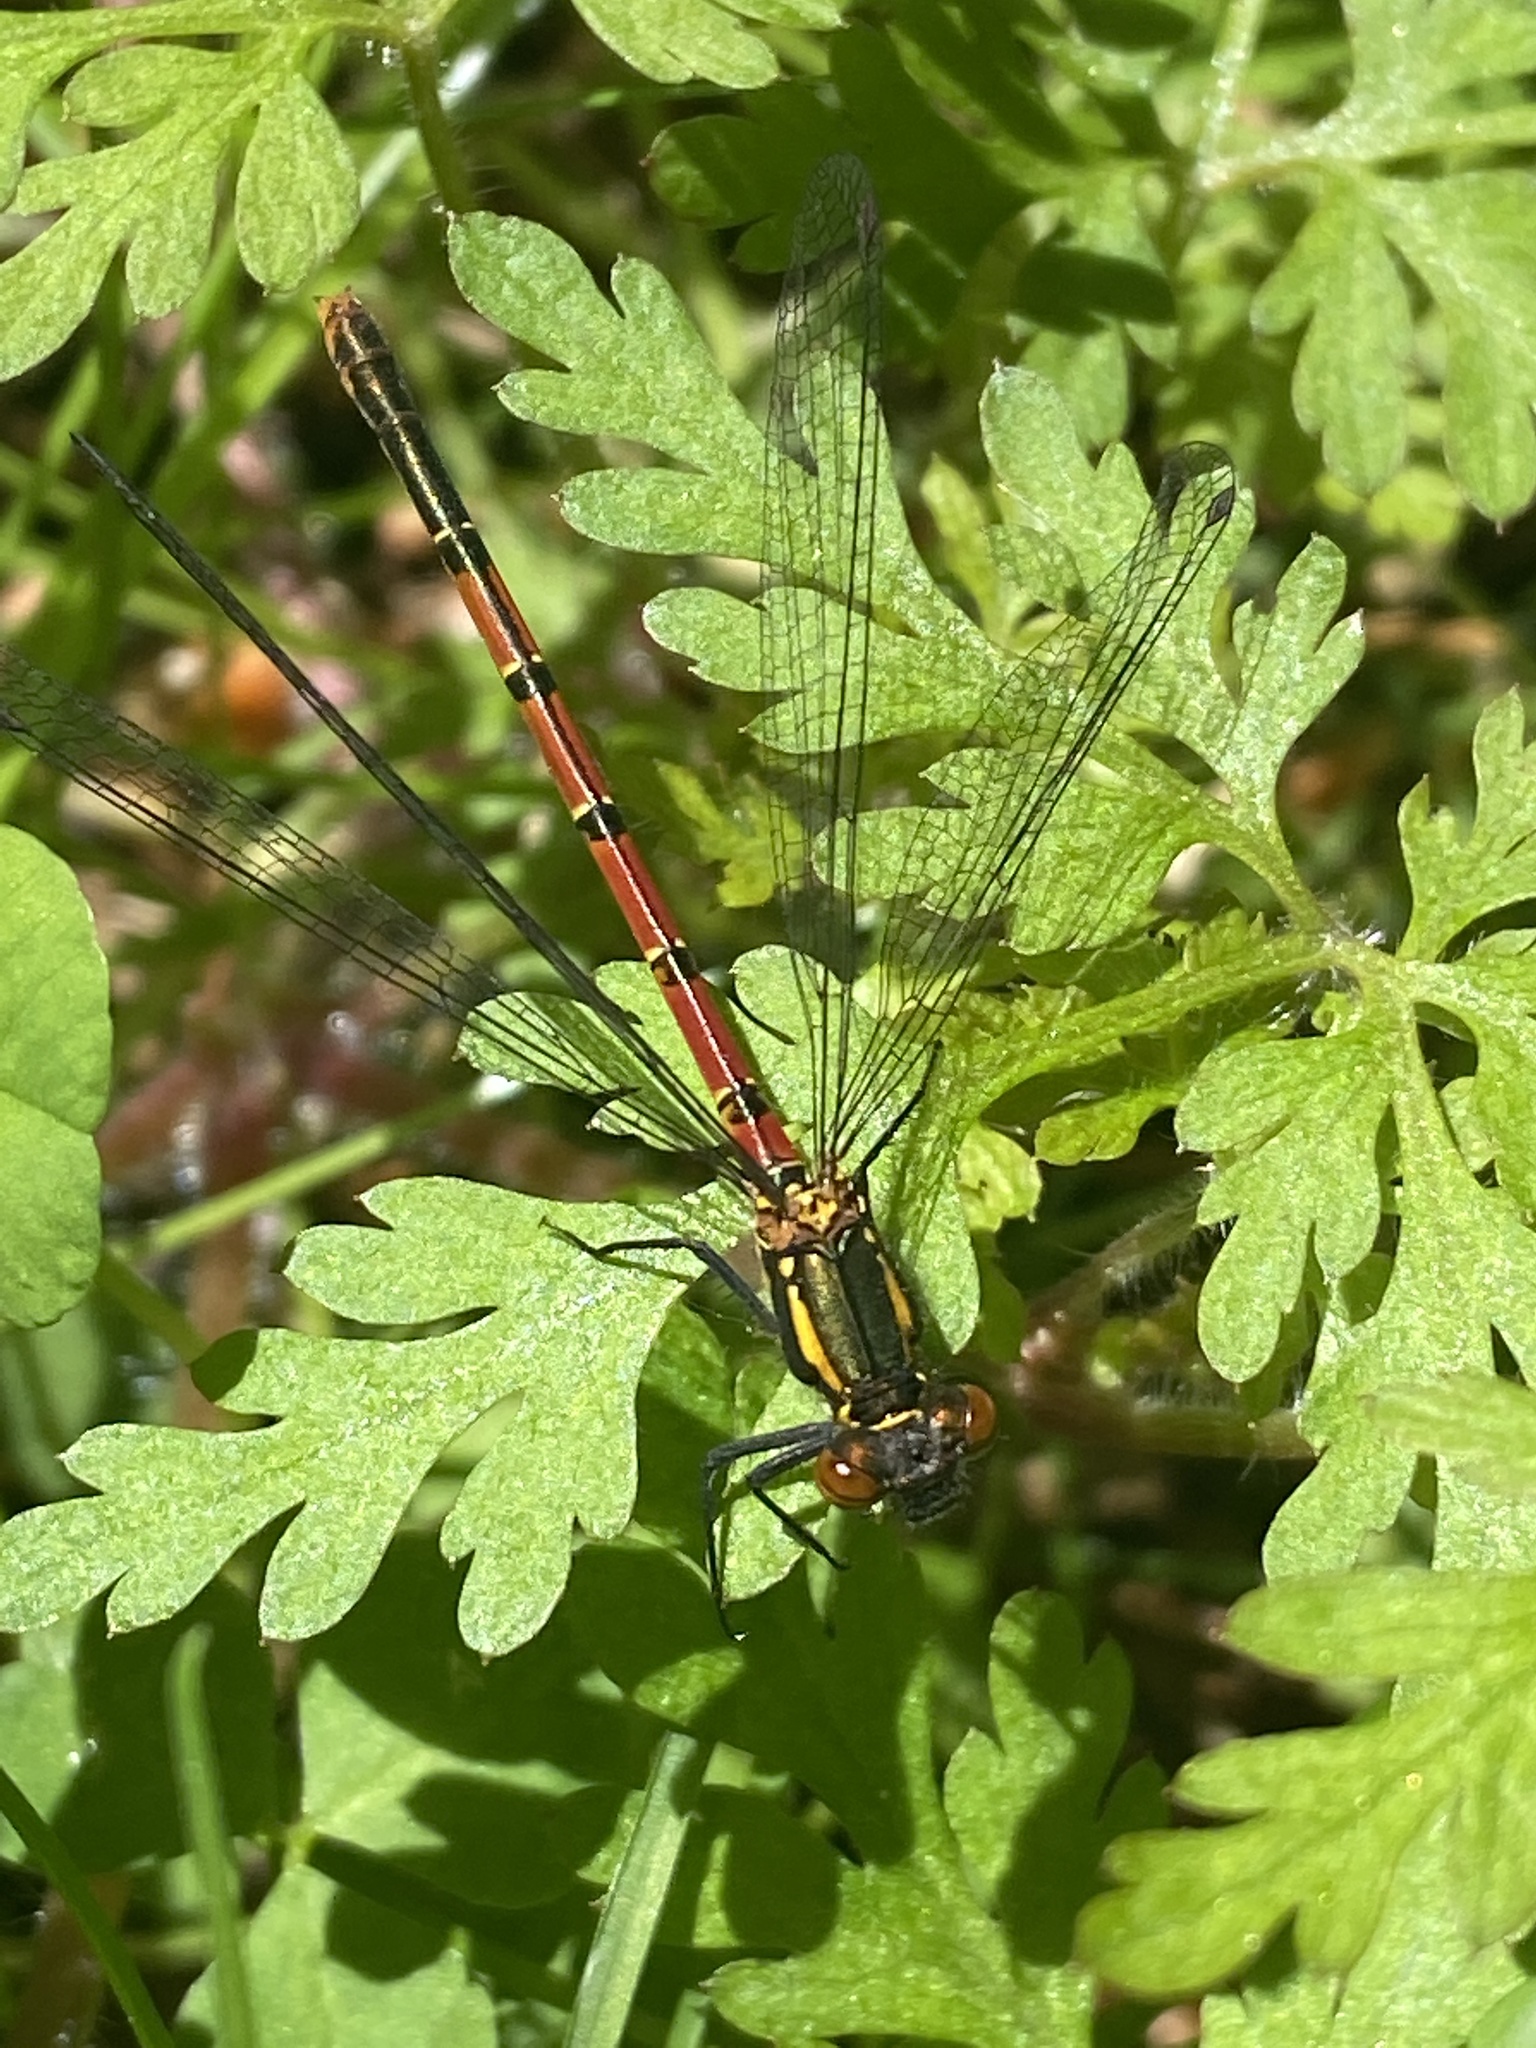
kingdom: Animalia
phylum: Arthropoda
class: Insecta
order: Odonata
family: Coenagrionidae
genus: Pyrrhosoma
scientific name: Pyrrhosoma nymphula
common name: Large red damsel
